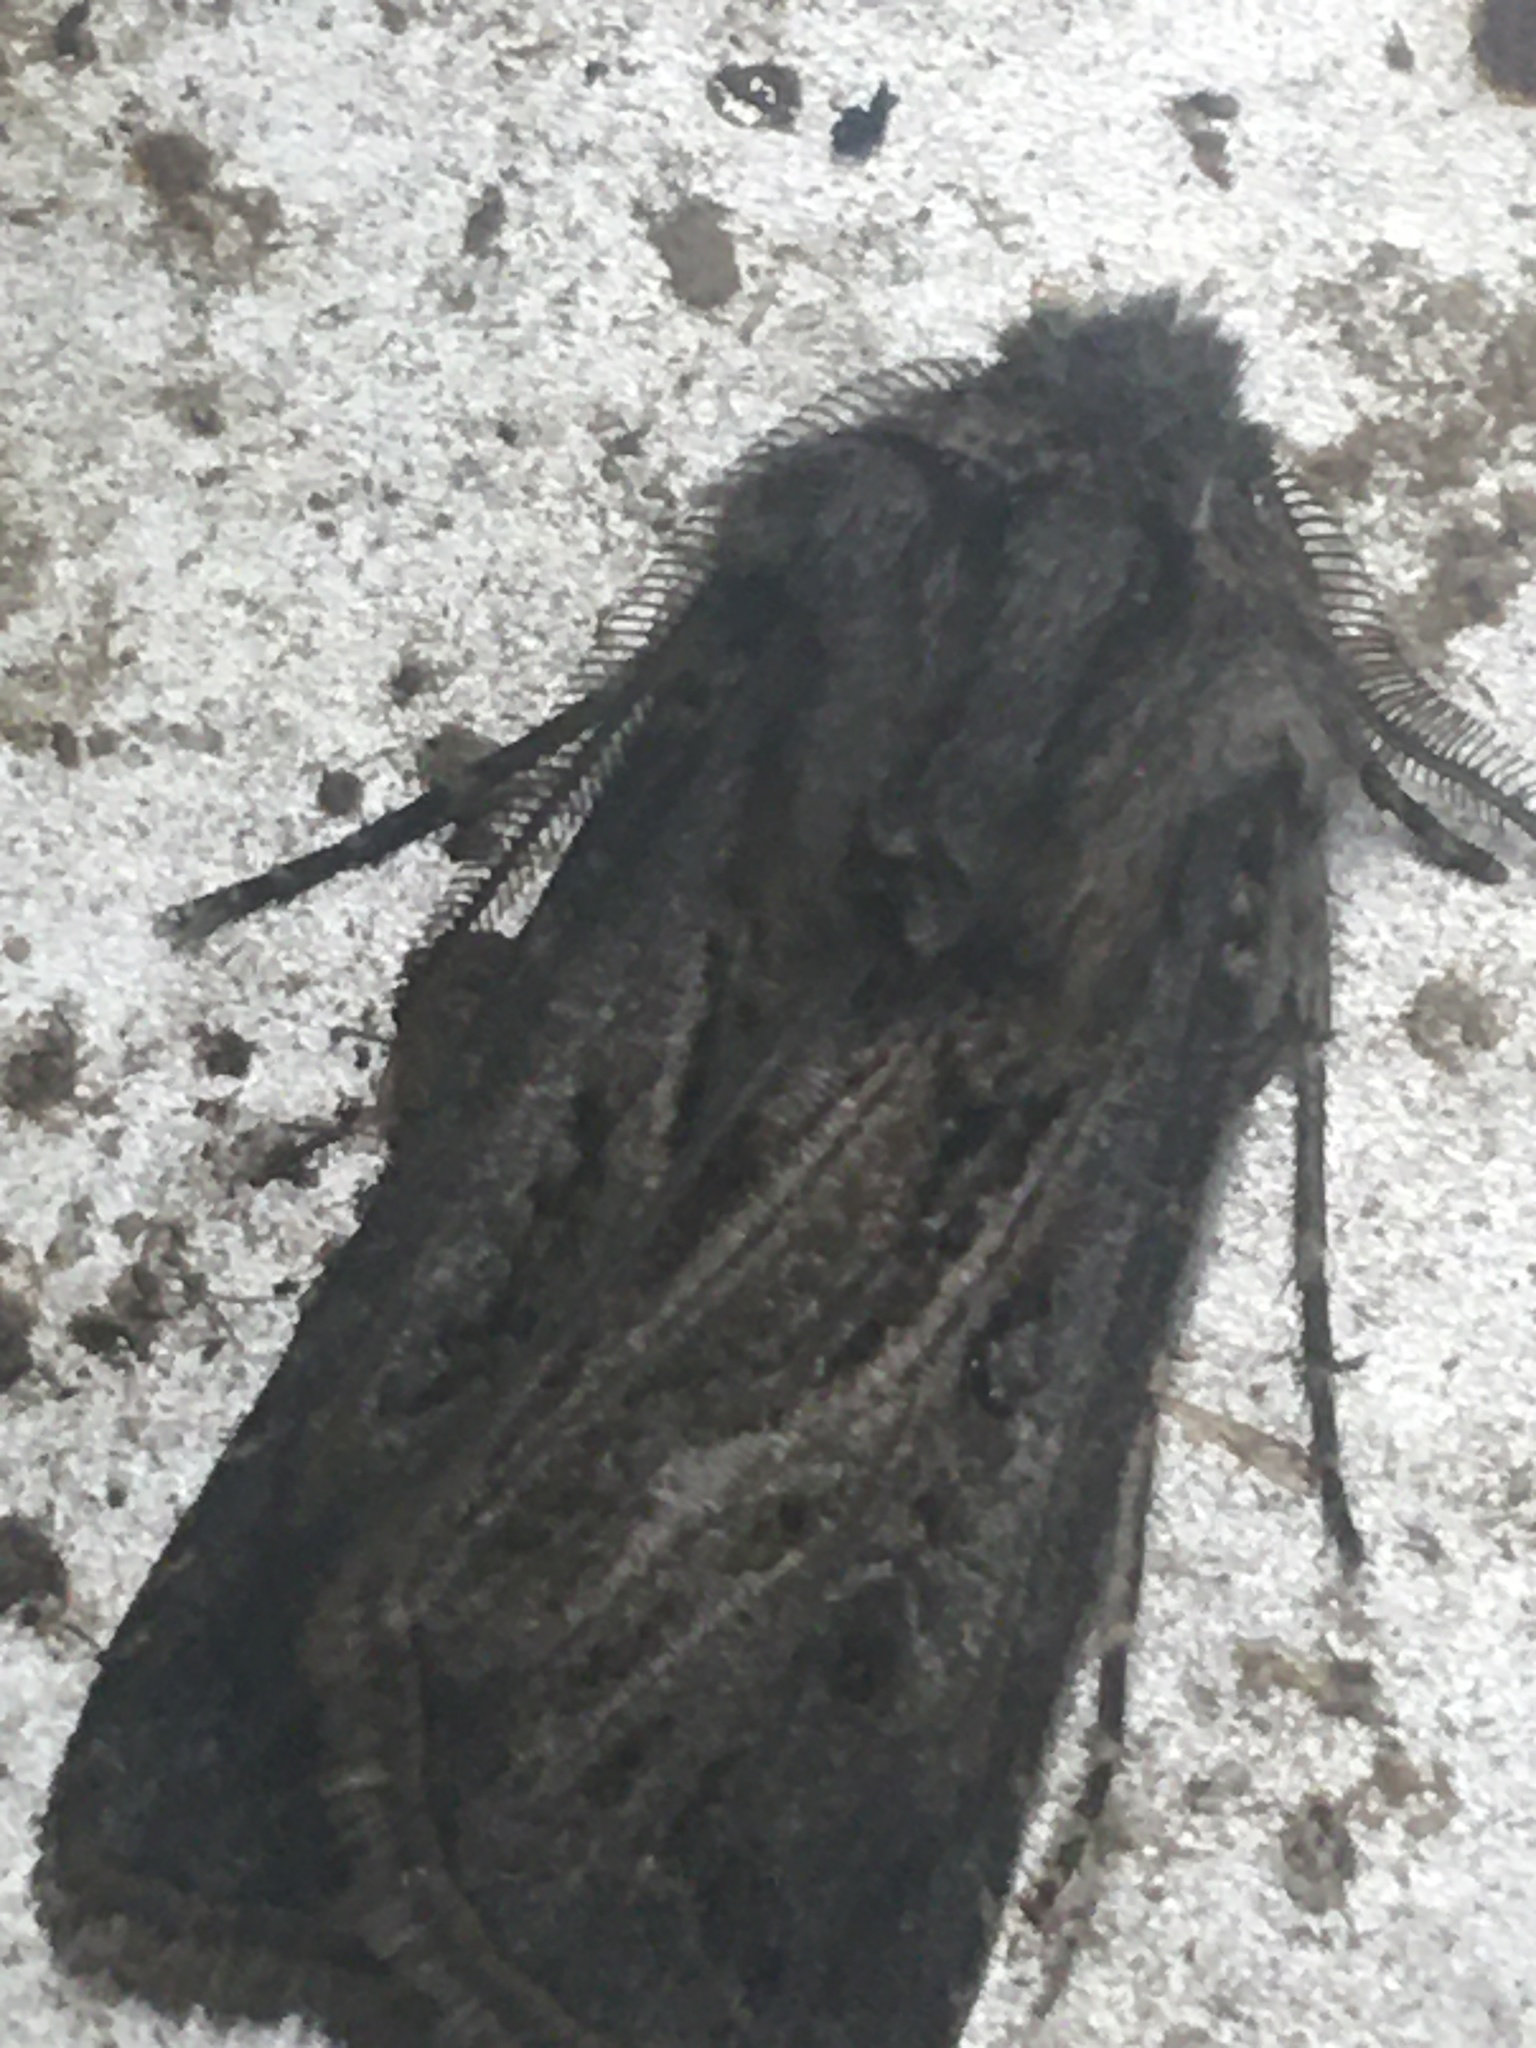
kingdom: Animalia
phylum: Arthropoda
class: Insecta
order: Lepidoptera
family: Noctuidae
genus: Agrotis
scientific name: Agrotis venerabilis
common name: Venerable dart
